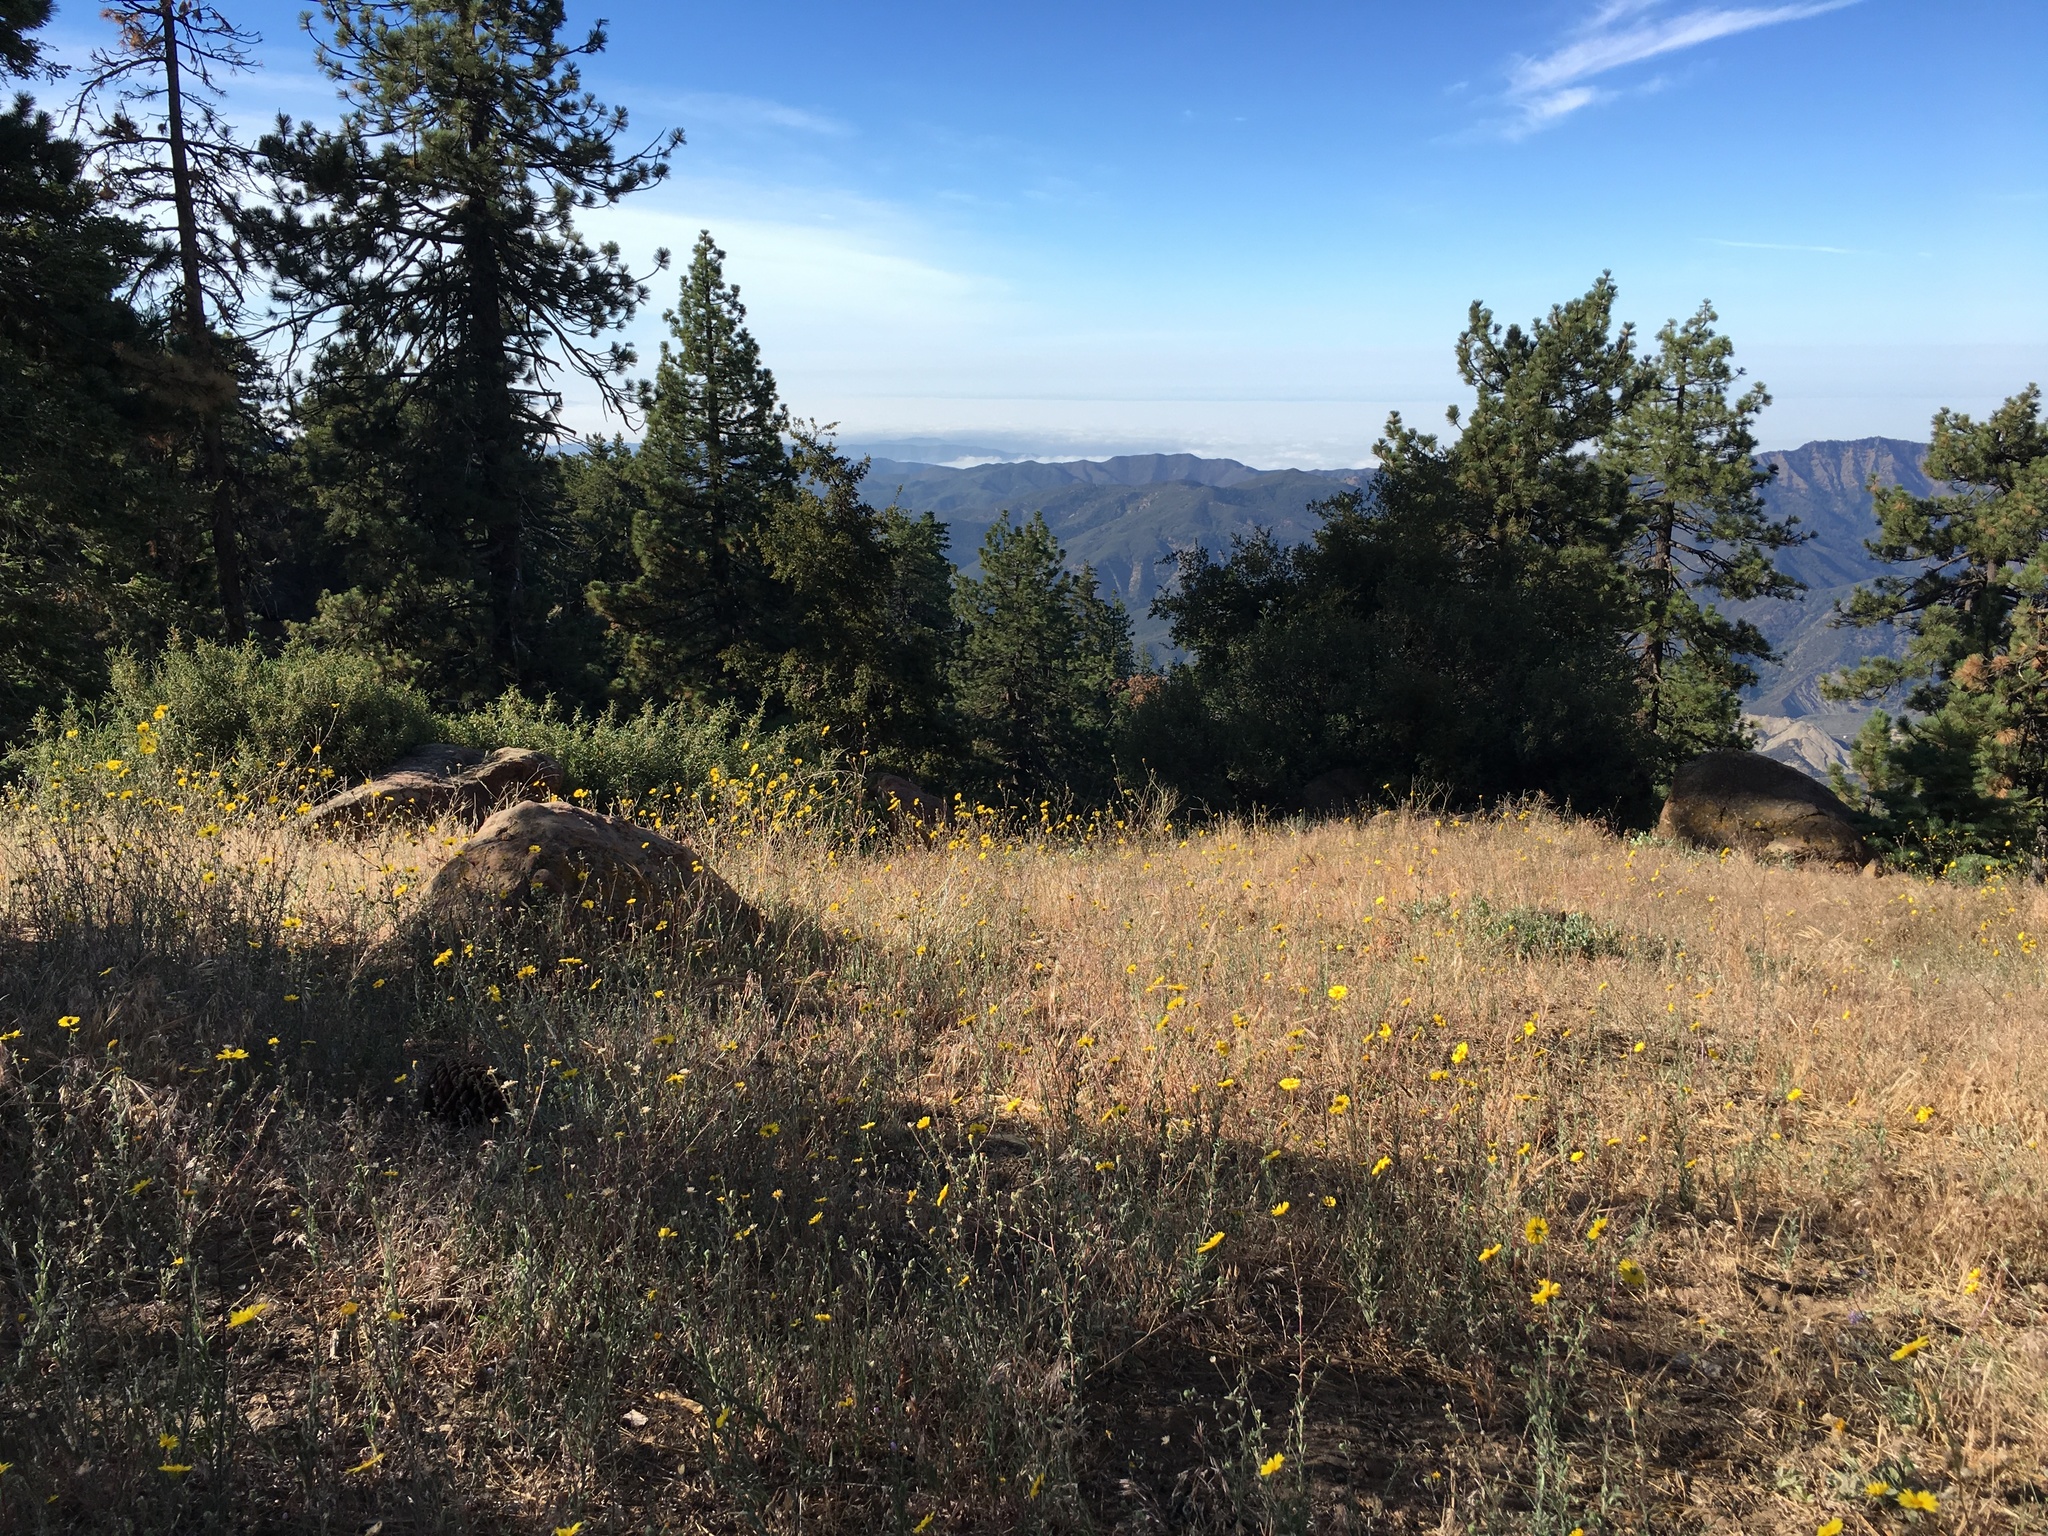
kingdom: Plantae
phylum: Tracheophyta
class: Magnoliopsida
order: Asterales
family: Asteraceae
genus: Madia
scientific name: Madia elegans
